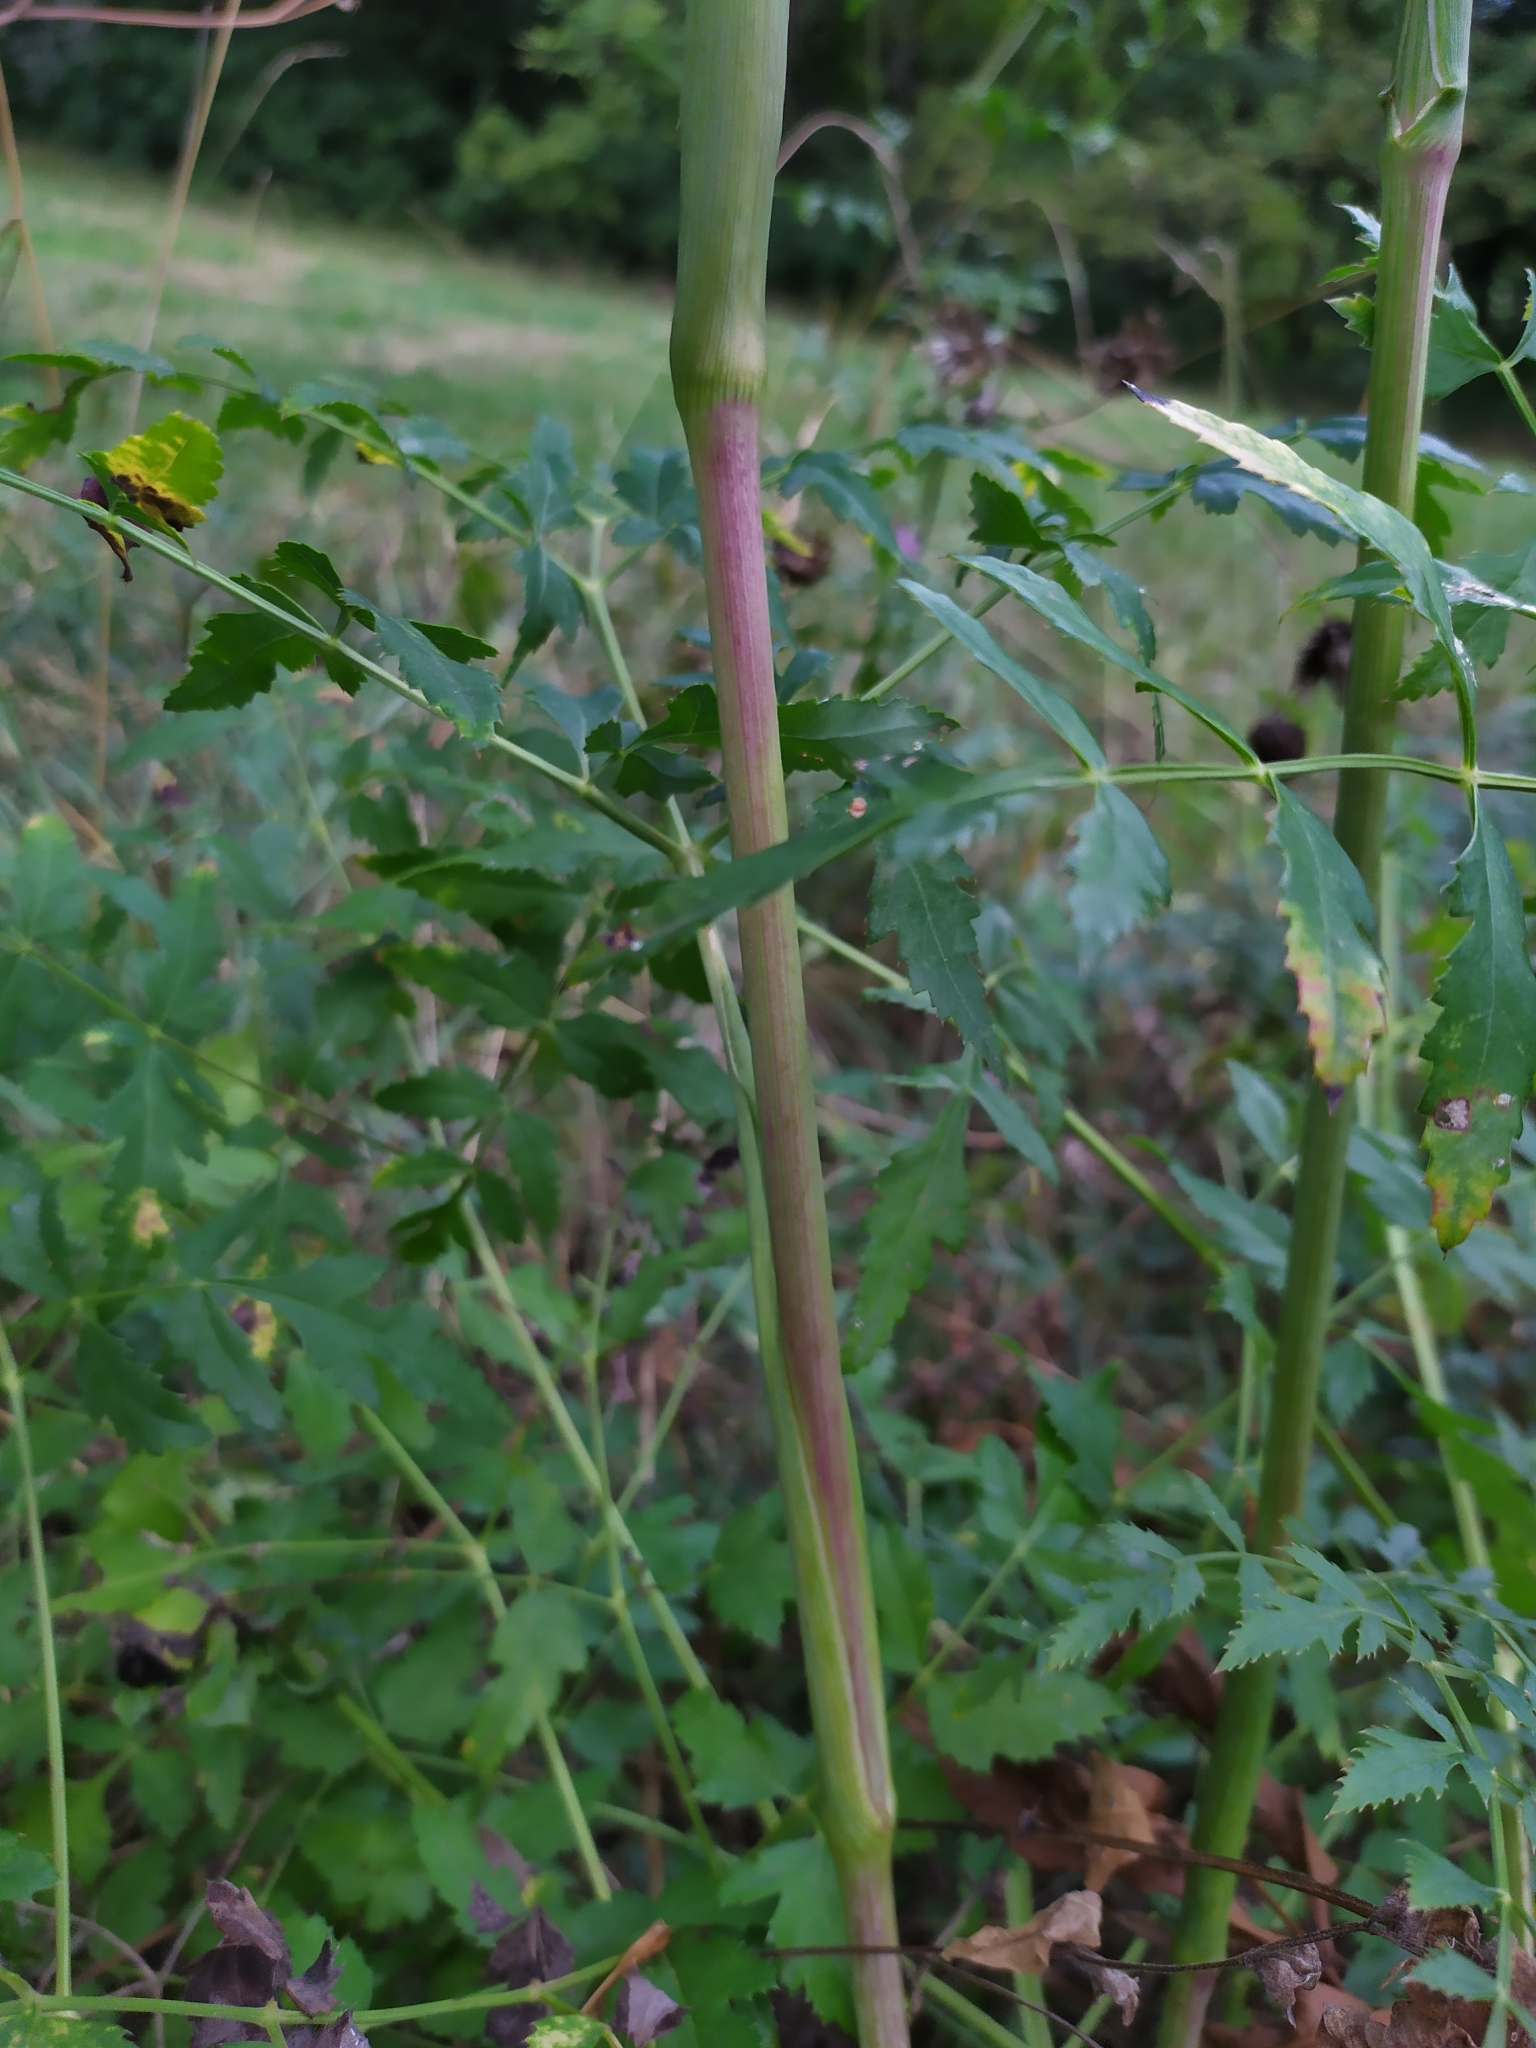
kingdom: Plantae
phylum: Tracheophyta
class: Magnoliopsida
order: Apiales
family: Apiaceae
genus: Cervaria
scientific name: Cervaria rivini
